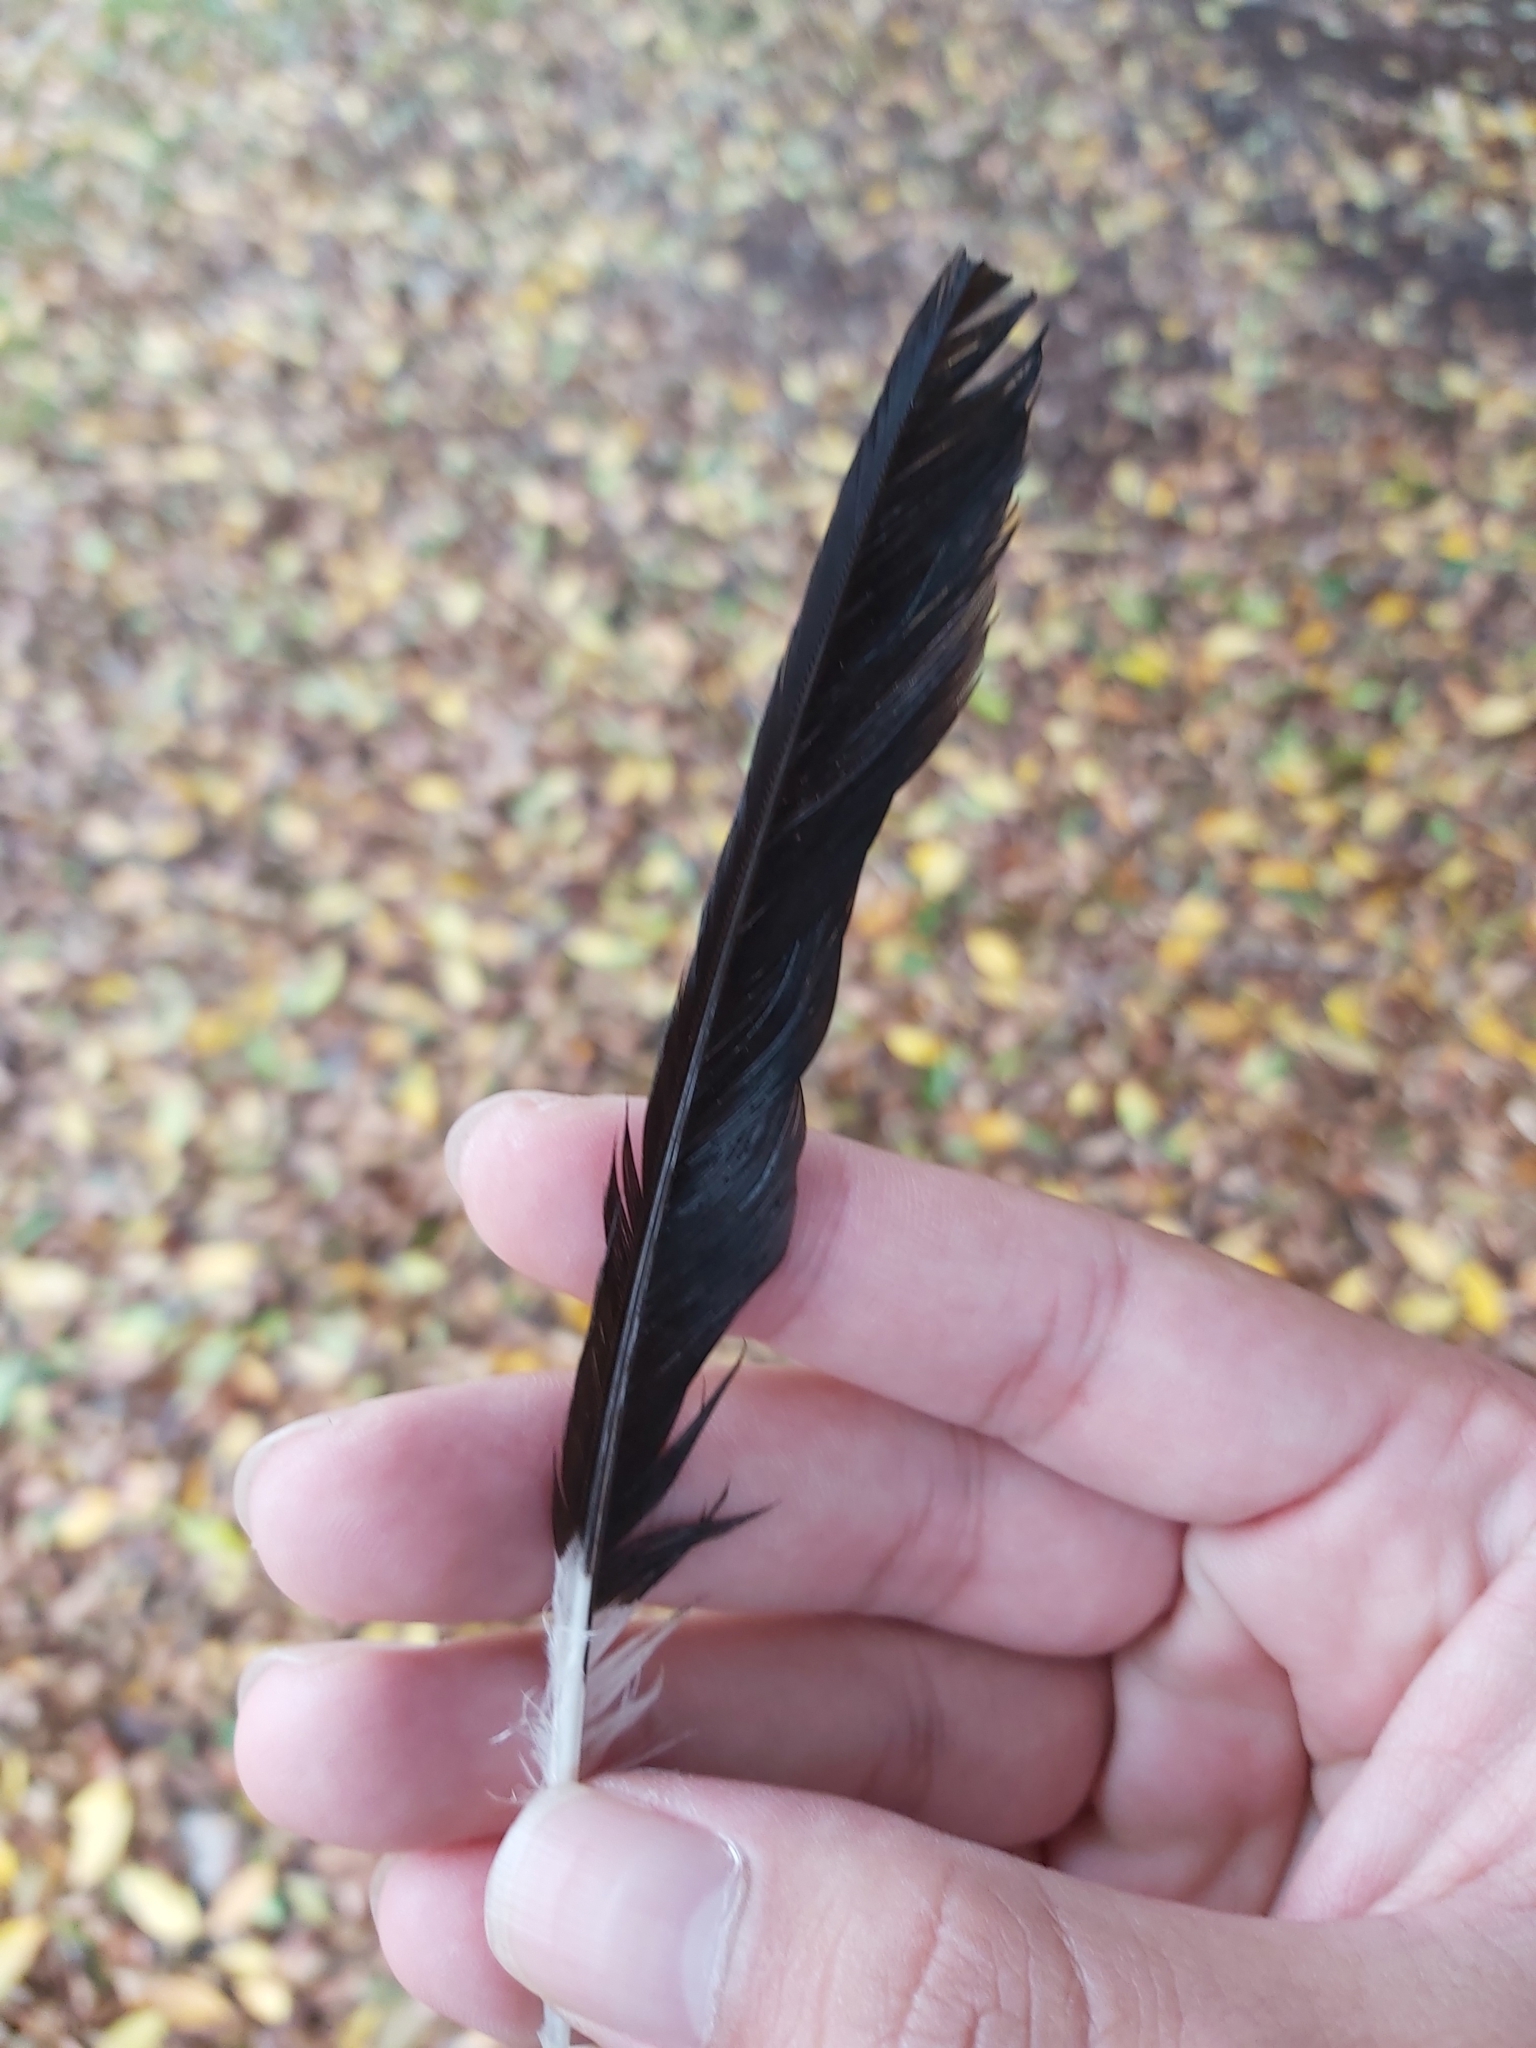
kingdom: Animalia
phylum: Chordata
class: Aves
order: Passeriformes
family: Monarchidae
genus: Grallina
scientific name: Grallina cyanoleuca
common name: Magpie-lark
